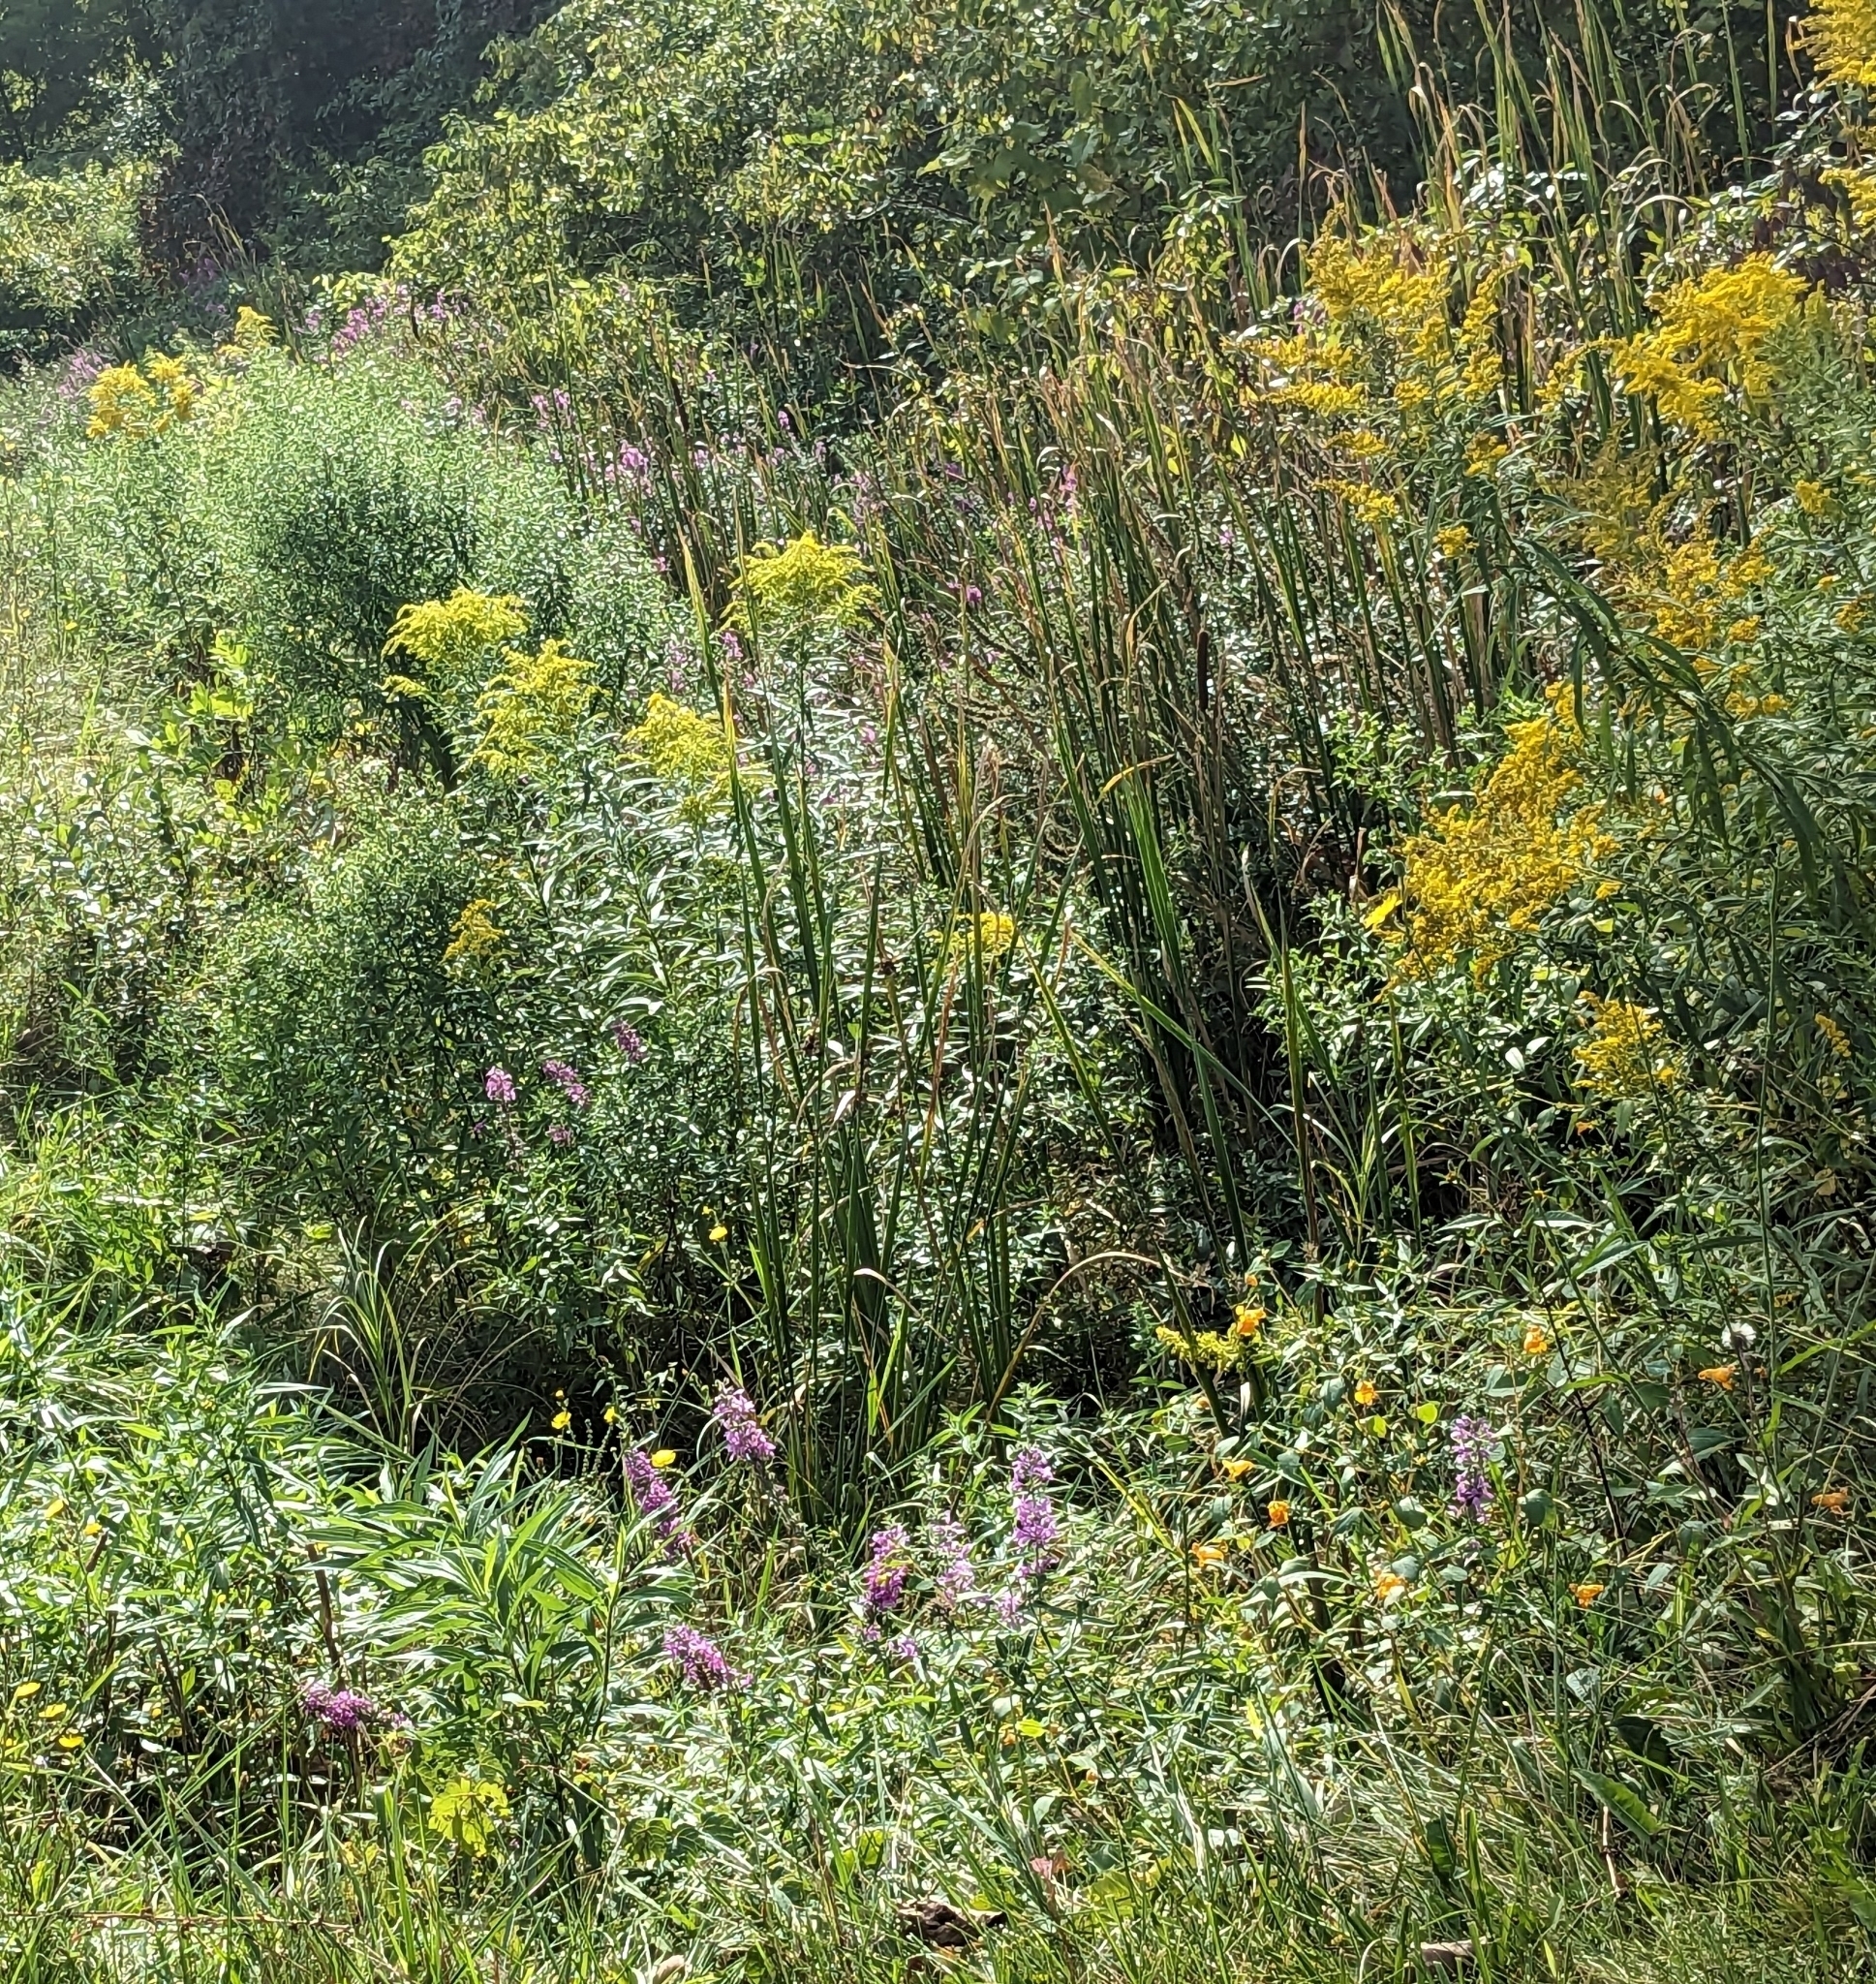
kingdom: Plantae
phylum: Tracheophyta
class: Magnoliopsida
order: Myrtales
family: Lythraceae
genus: Lythrum
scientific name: Lythrum salicaria
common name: Purple loosestrife
